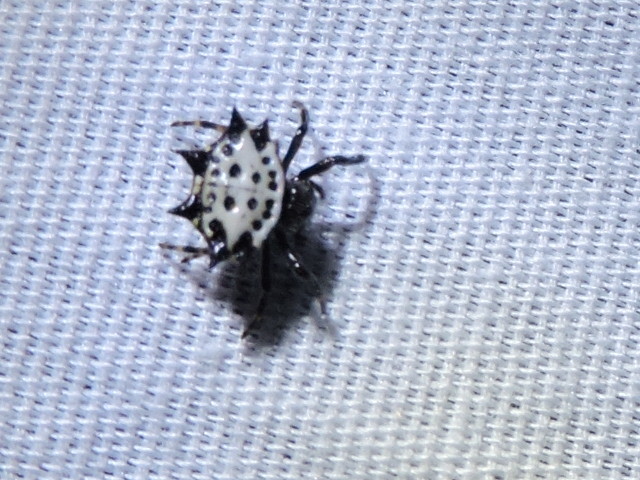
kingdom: Animalia
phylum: Arthropoda
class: Arachnida
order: Araneae
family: Araneidae
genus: Gasteracantha
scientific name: Gasteracantha cancriformis
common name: Orb weavers
